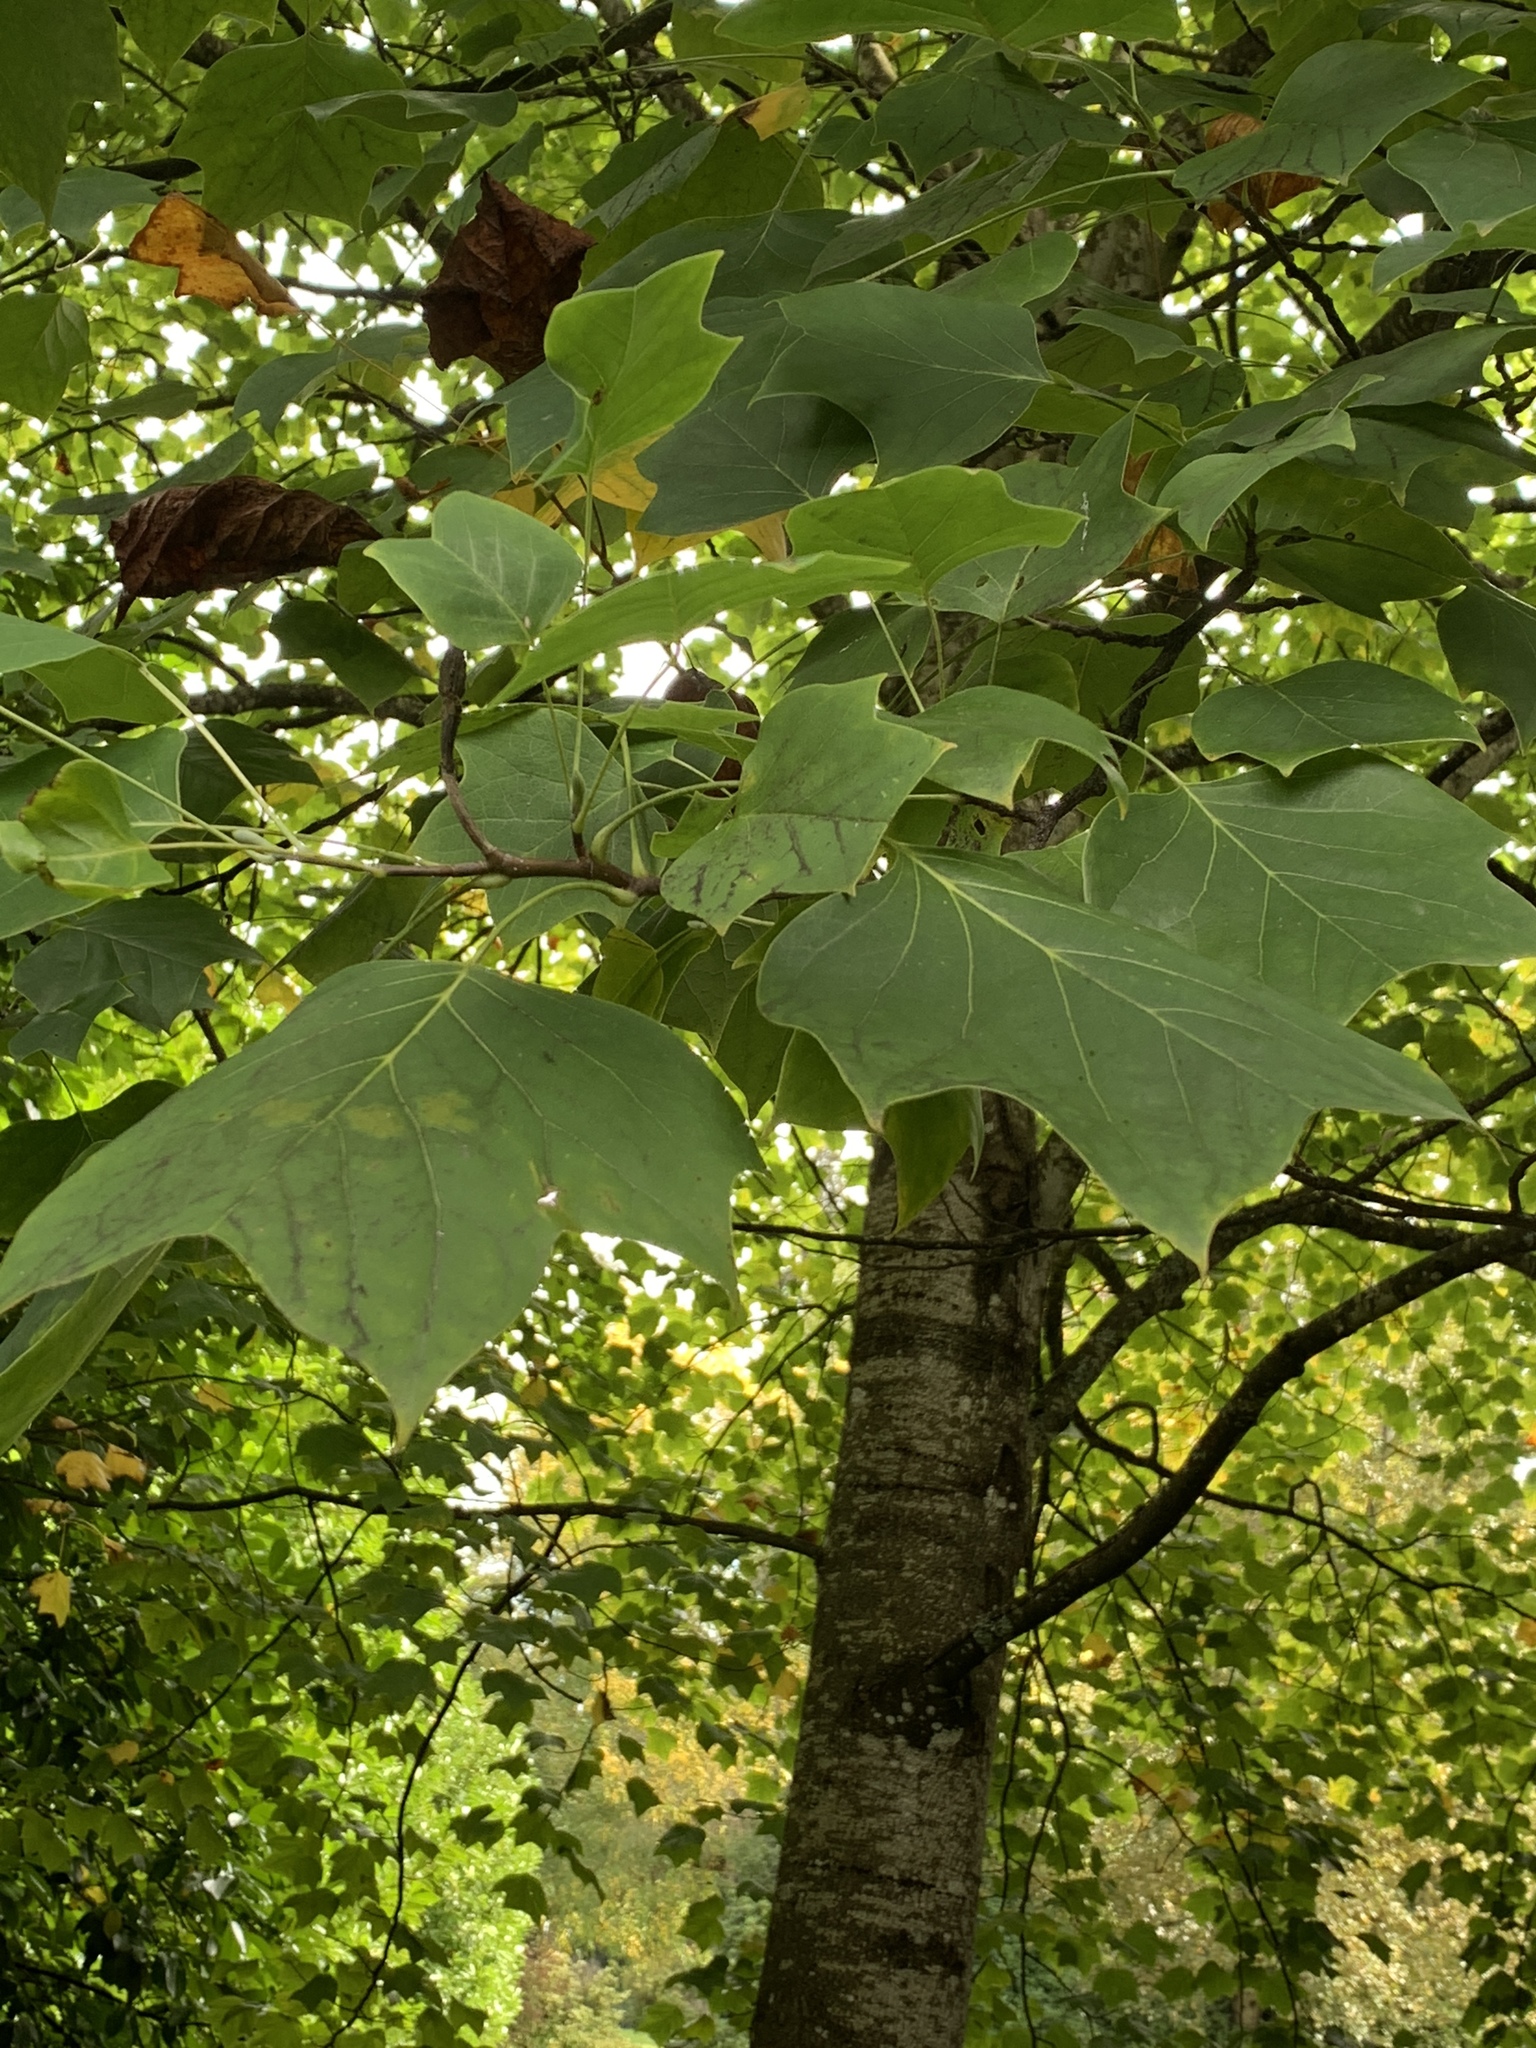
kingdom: Plantae
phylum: Tracheophyta
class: Magnoliopsida
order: Magnoliales
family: Magnoliaceae
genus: Liriodendron
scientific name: Liriodendron tulipifera
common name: Tulip tree
